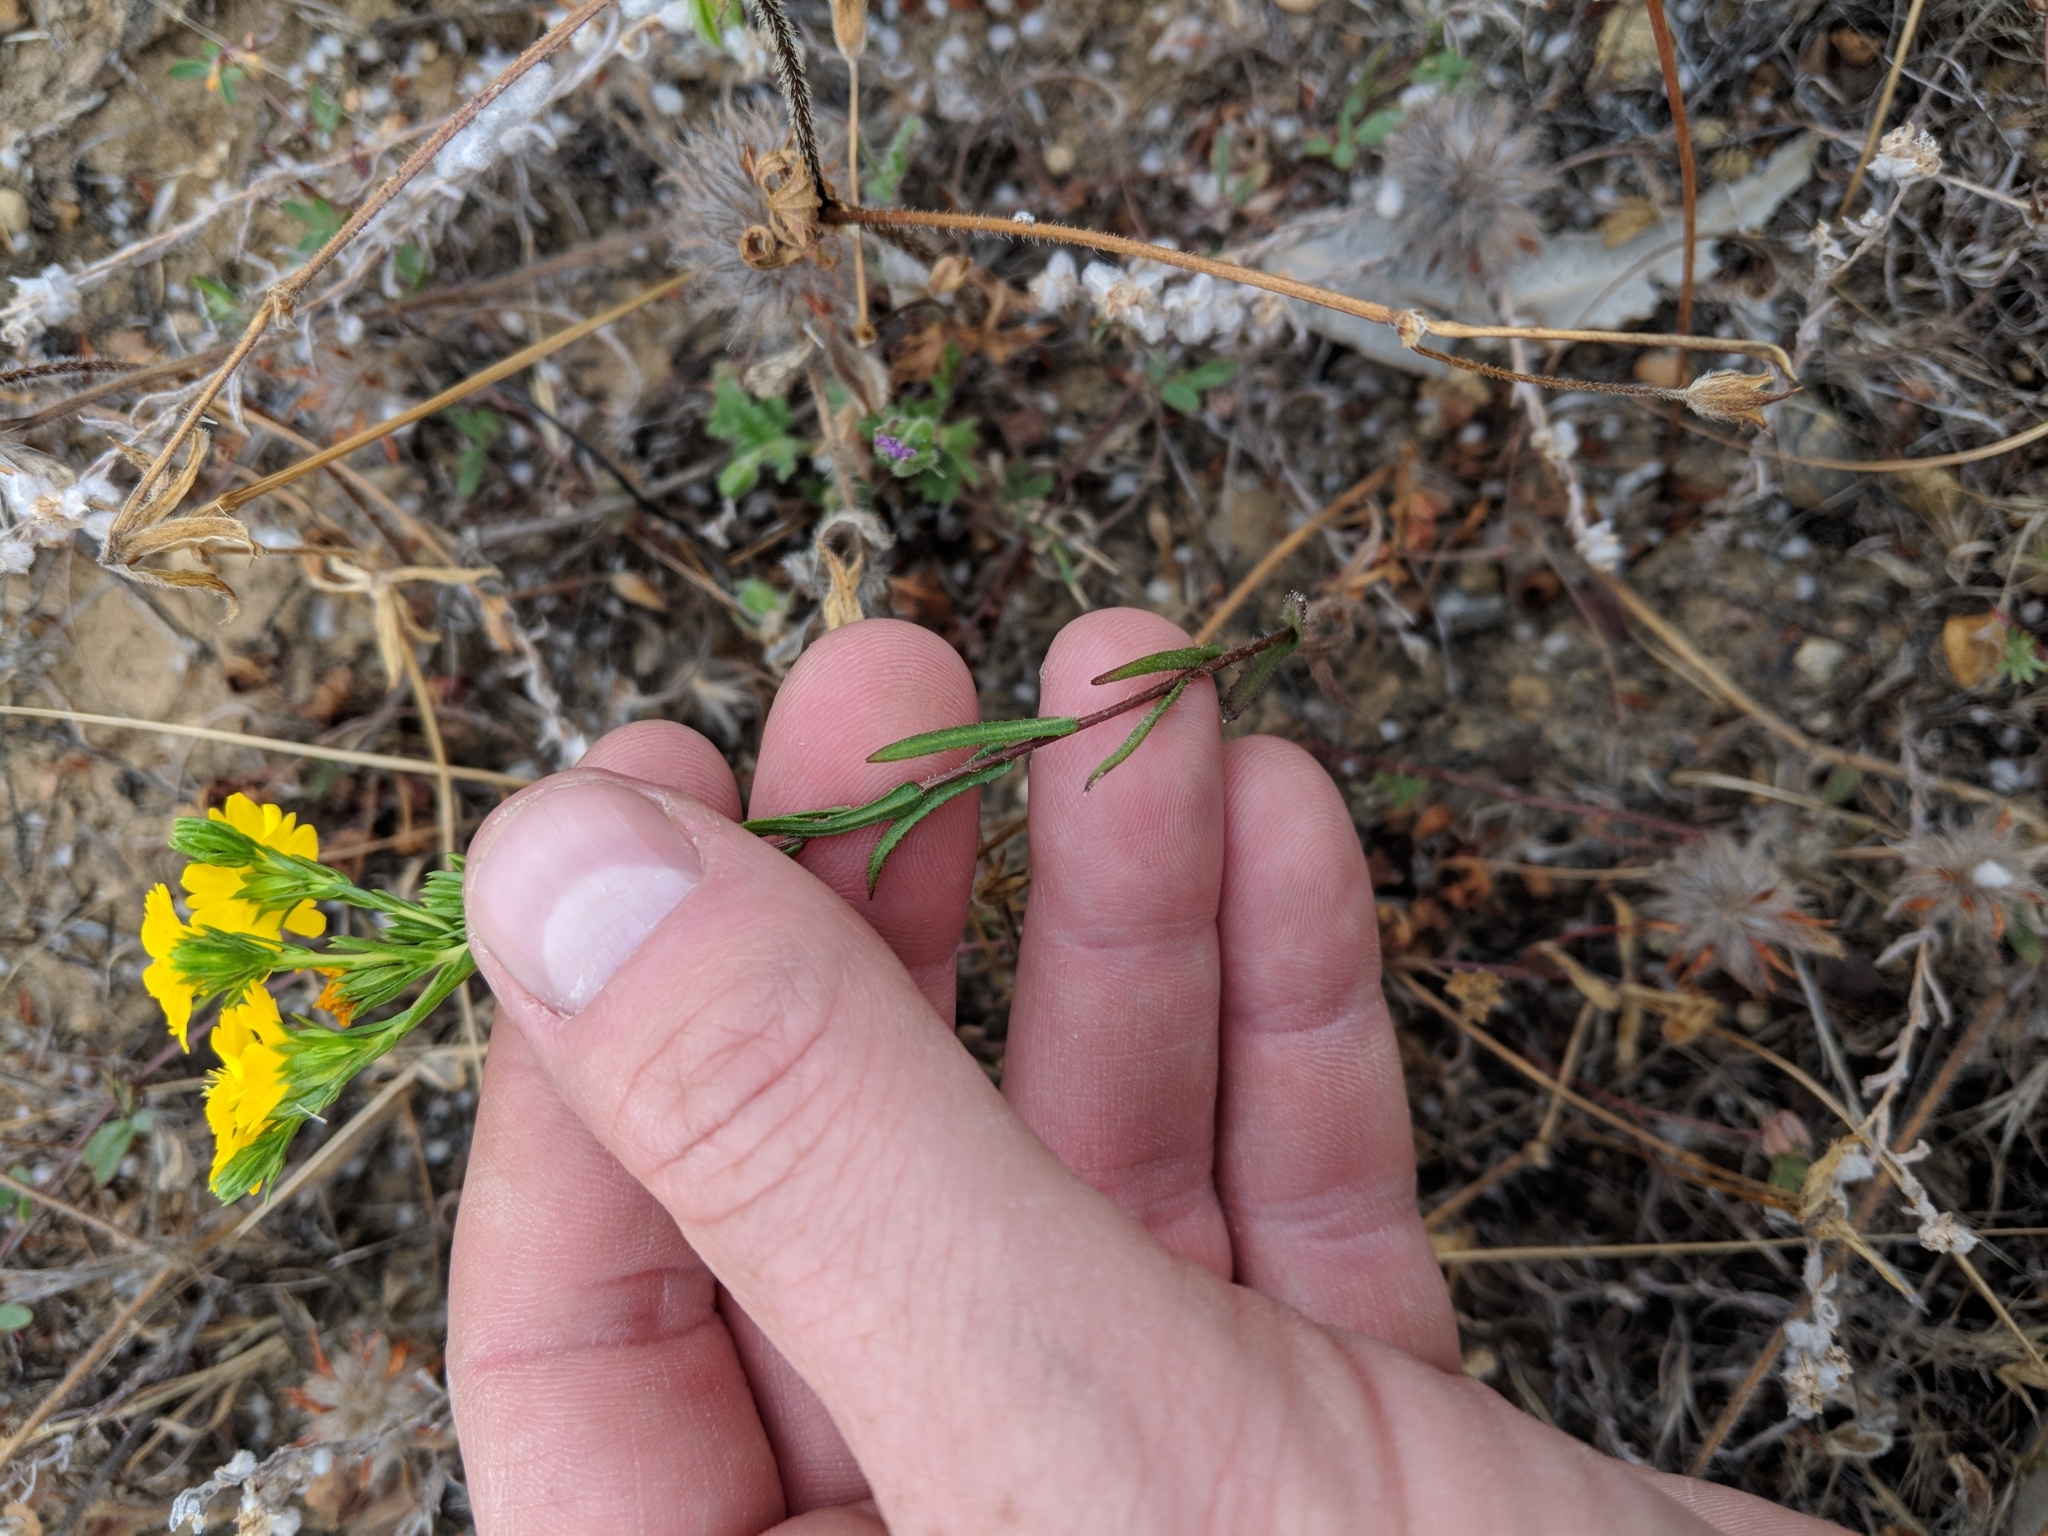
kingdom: Plantae
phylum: Tracheophyta
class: Magnoliopsida
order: Asterales
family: Asteraceae
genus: Deinandra
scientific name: Deinandra fasciculata
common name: Clustered tarweed
